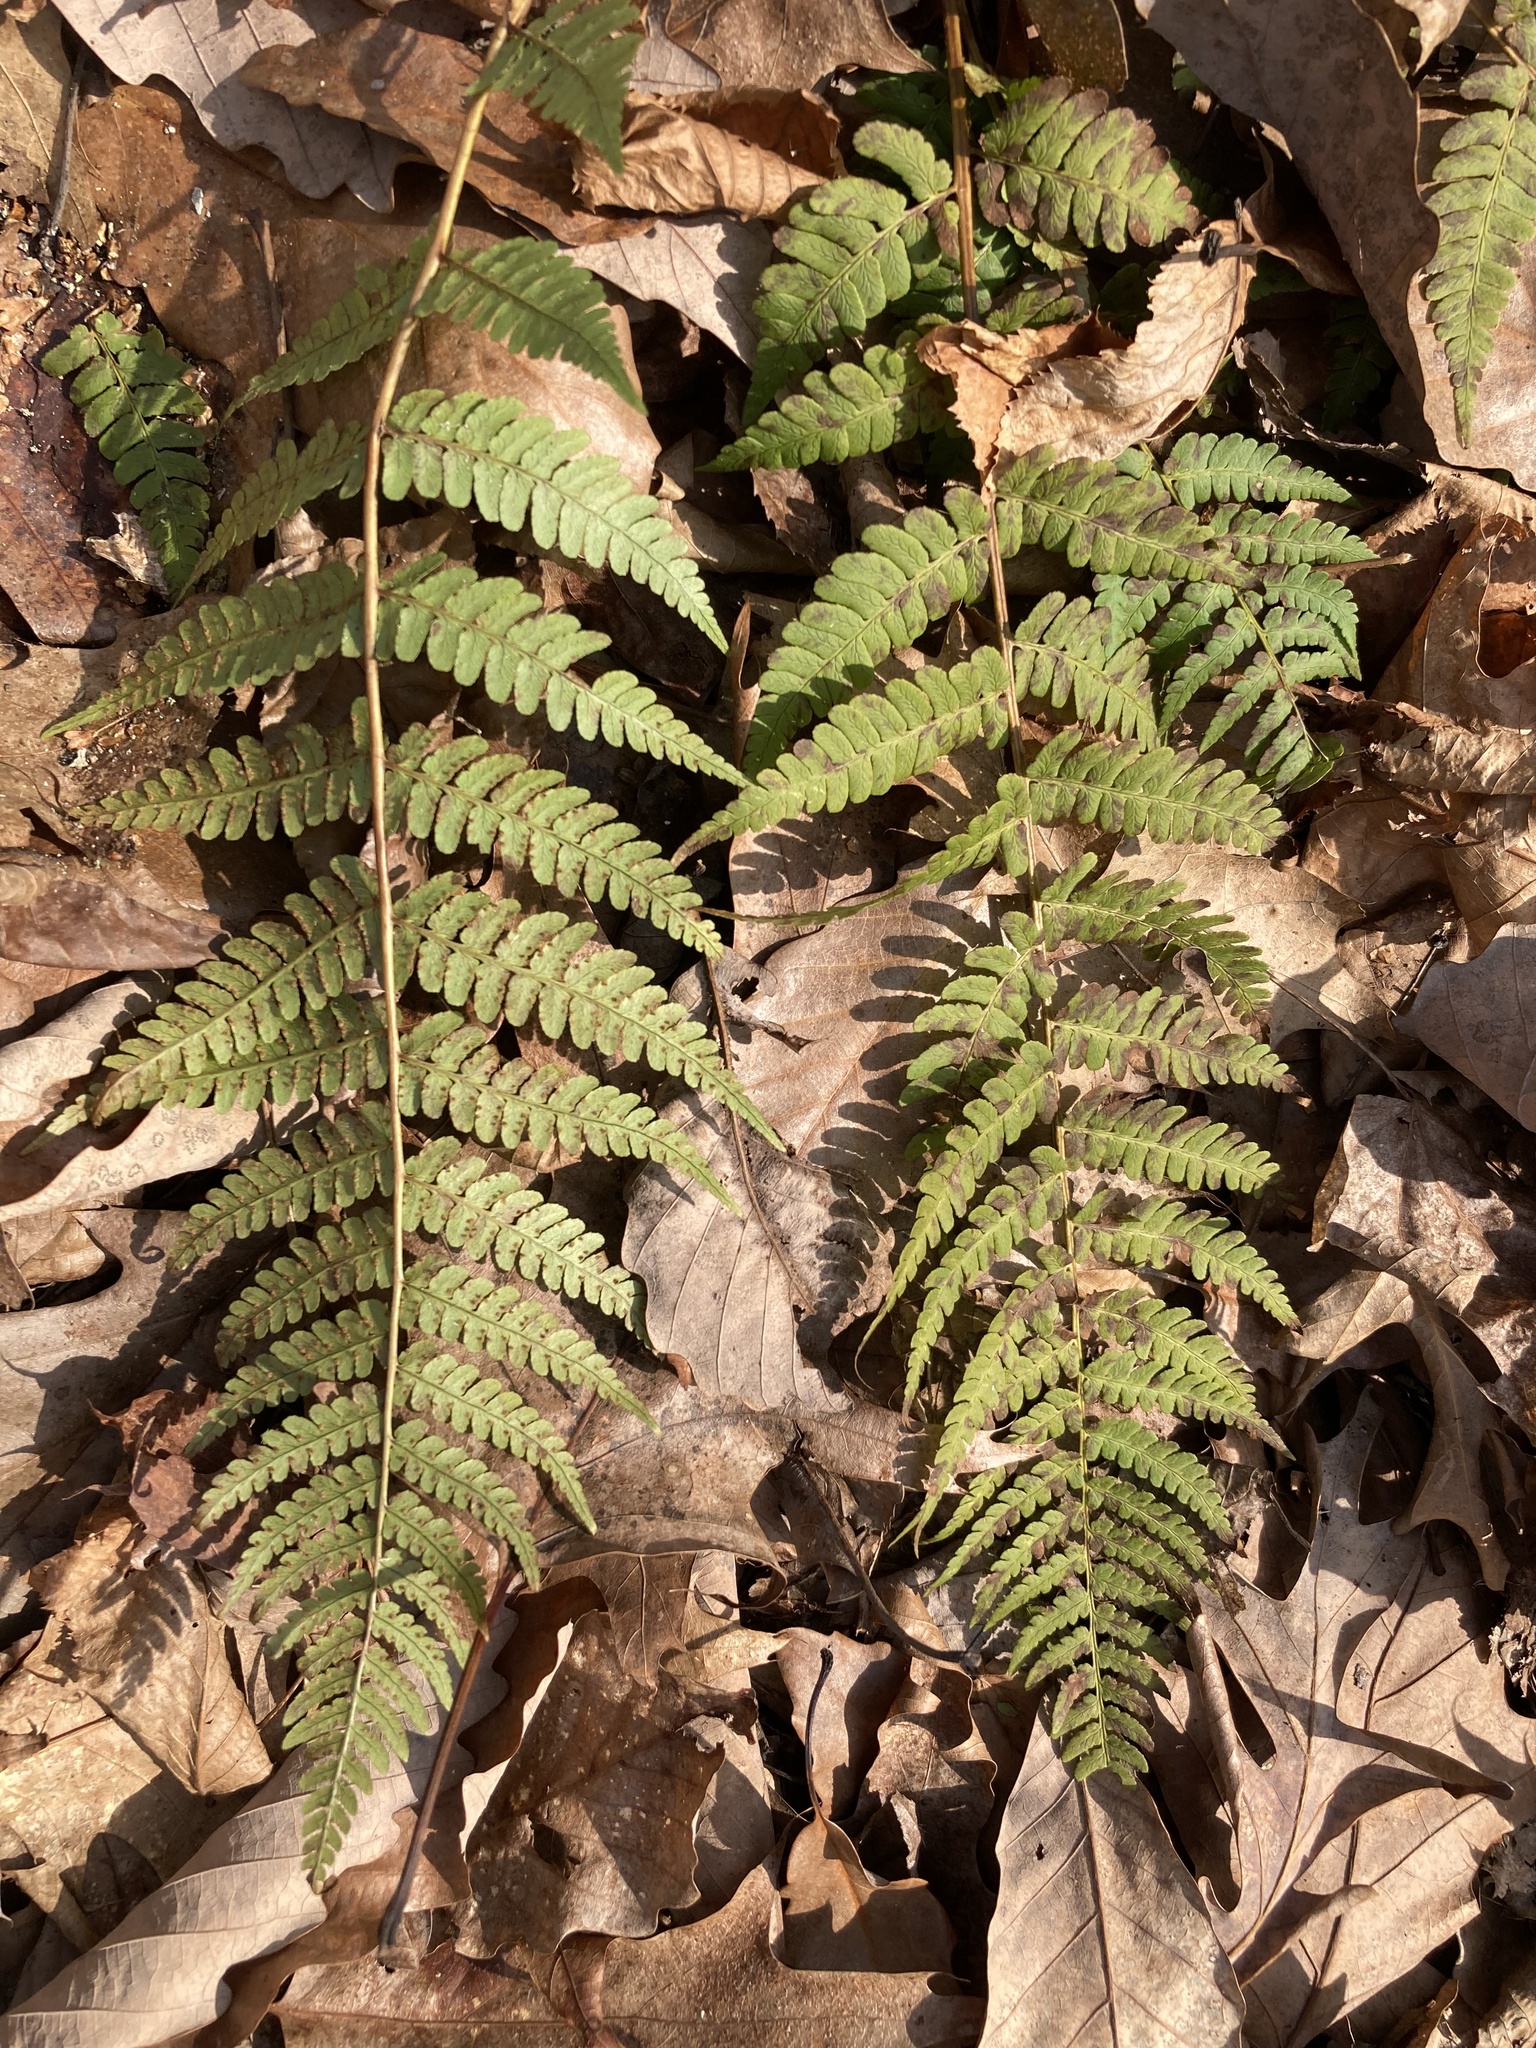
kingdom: Plantae
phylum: Tracheophyta
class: Polypodiopsida
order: Polypodiales
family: Dryopteridaceae
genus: Dryopteris
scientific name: Dryopteris marginalis
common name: Marginal wood fern
